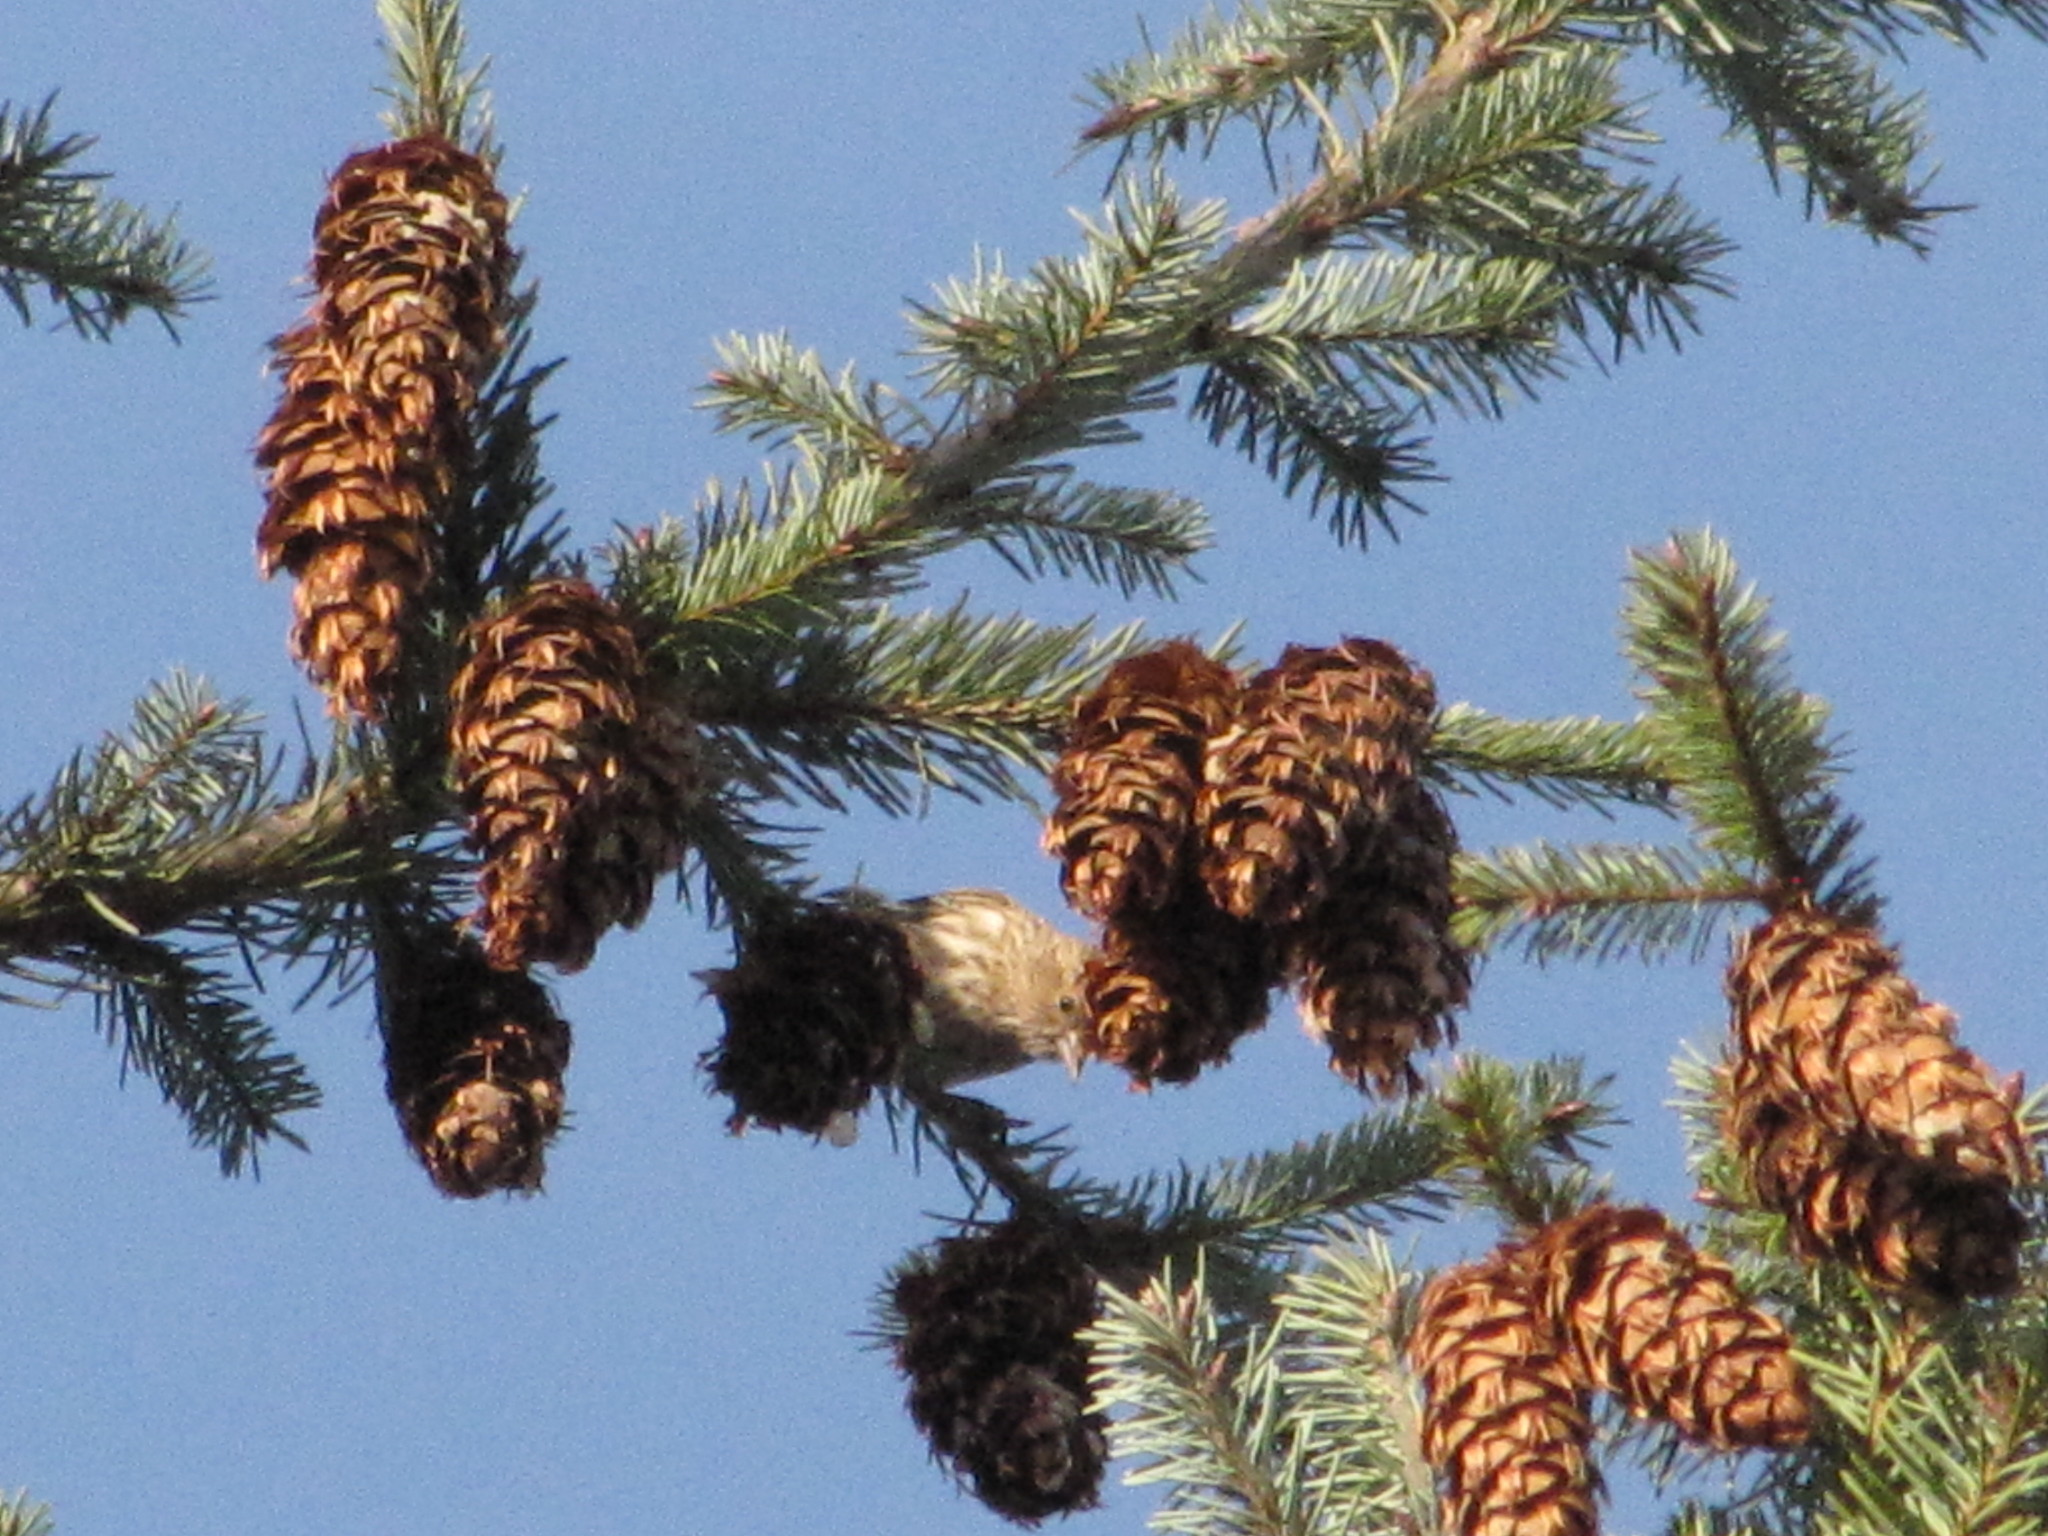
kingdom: Animalia
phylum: Chordata
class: Aves
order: Passeriformes
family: Fringillidae
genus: Spinus
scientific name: Spinus pinus
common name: Pine siskin
